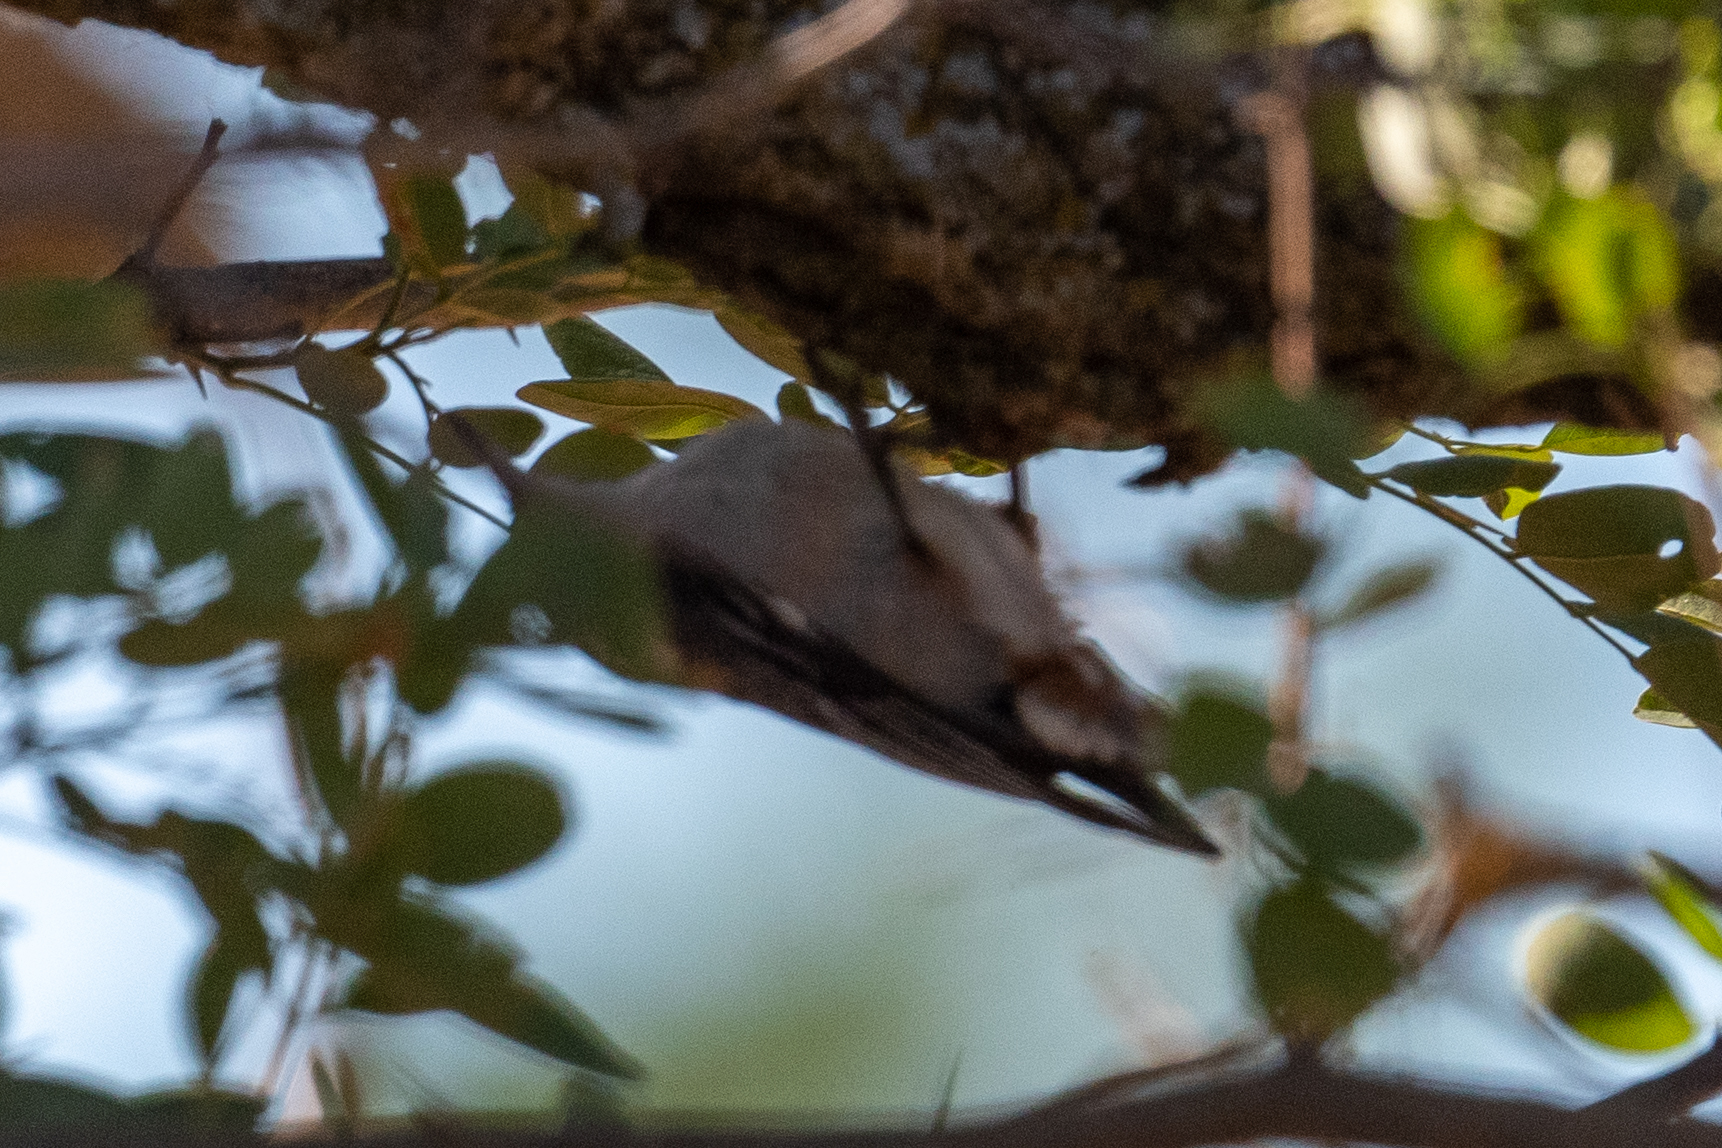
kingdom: Animalia
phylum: Chordata
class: Aves
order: Passeriformes
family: Sittidae
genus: Sitta
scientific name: Sitta carolinensis
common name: White-breasted nuthatch
